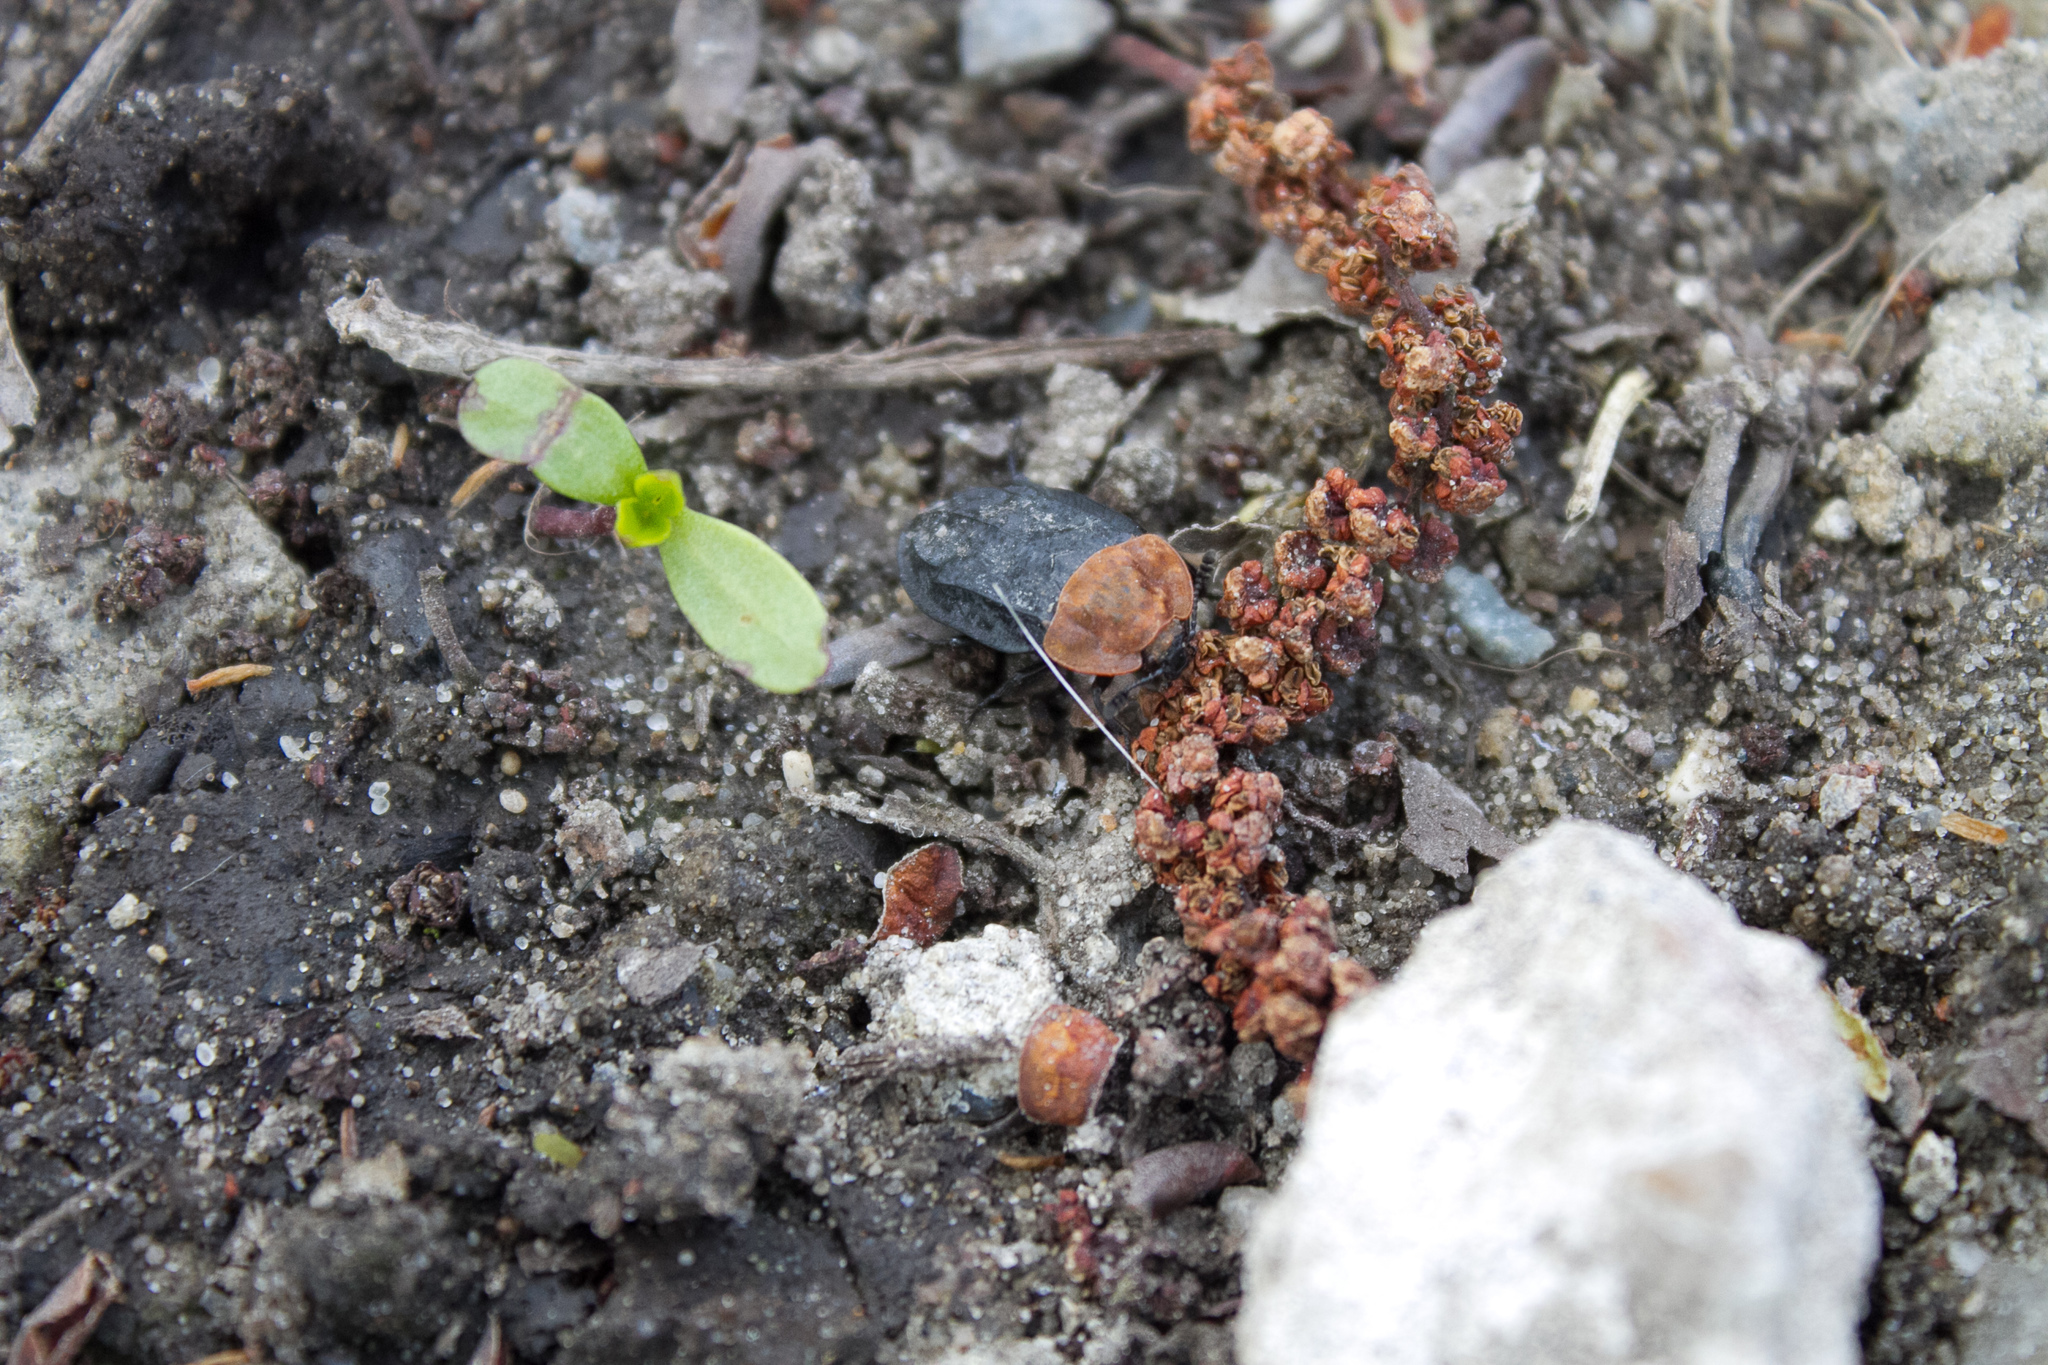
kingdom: Animalia
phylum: Arthropoda
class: Insecta
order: Coleoptera
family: Staphylinidae
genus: Oiceoptoma
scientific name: Oiceoptoma thoracicum
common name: Red-breasted carrion beetle
